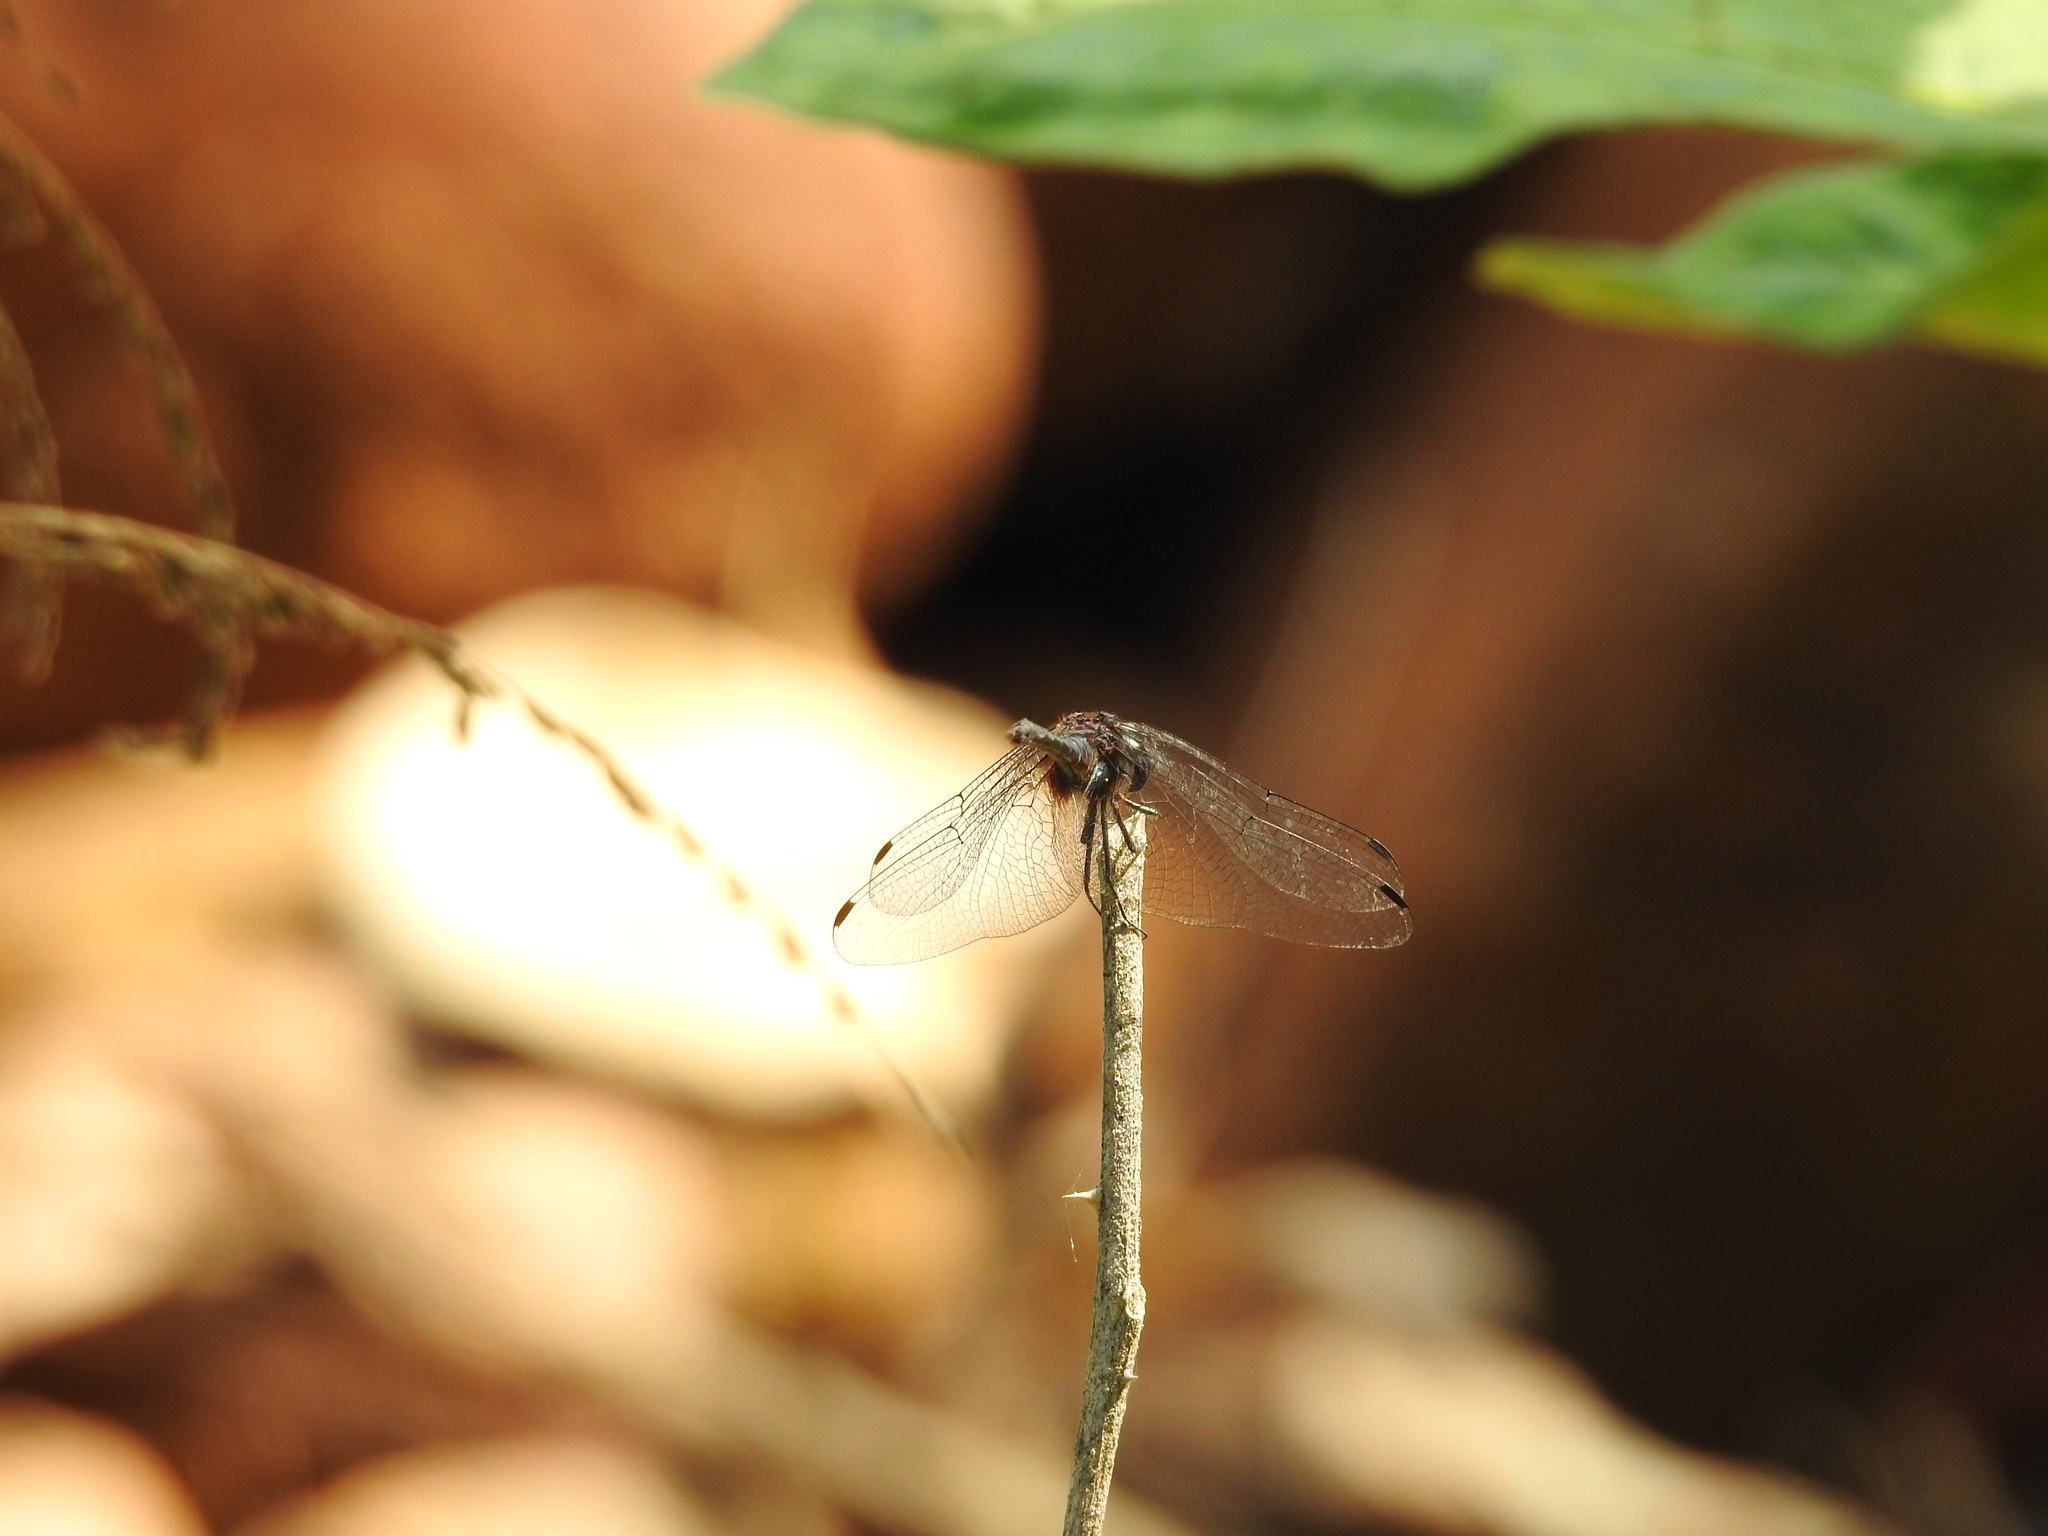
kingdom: Animalia
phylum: Arthropoda
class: Insecta
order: Odonata
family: Libellulidae
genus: Trithemis
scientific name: Trithemis festiva
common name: Indigo dropwing
